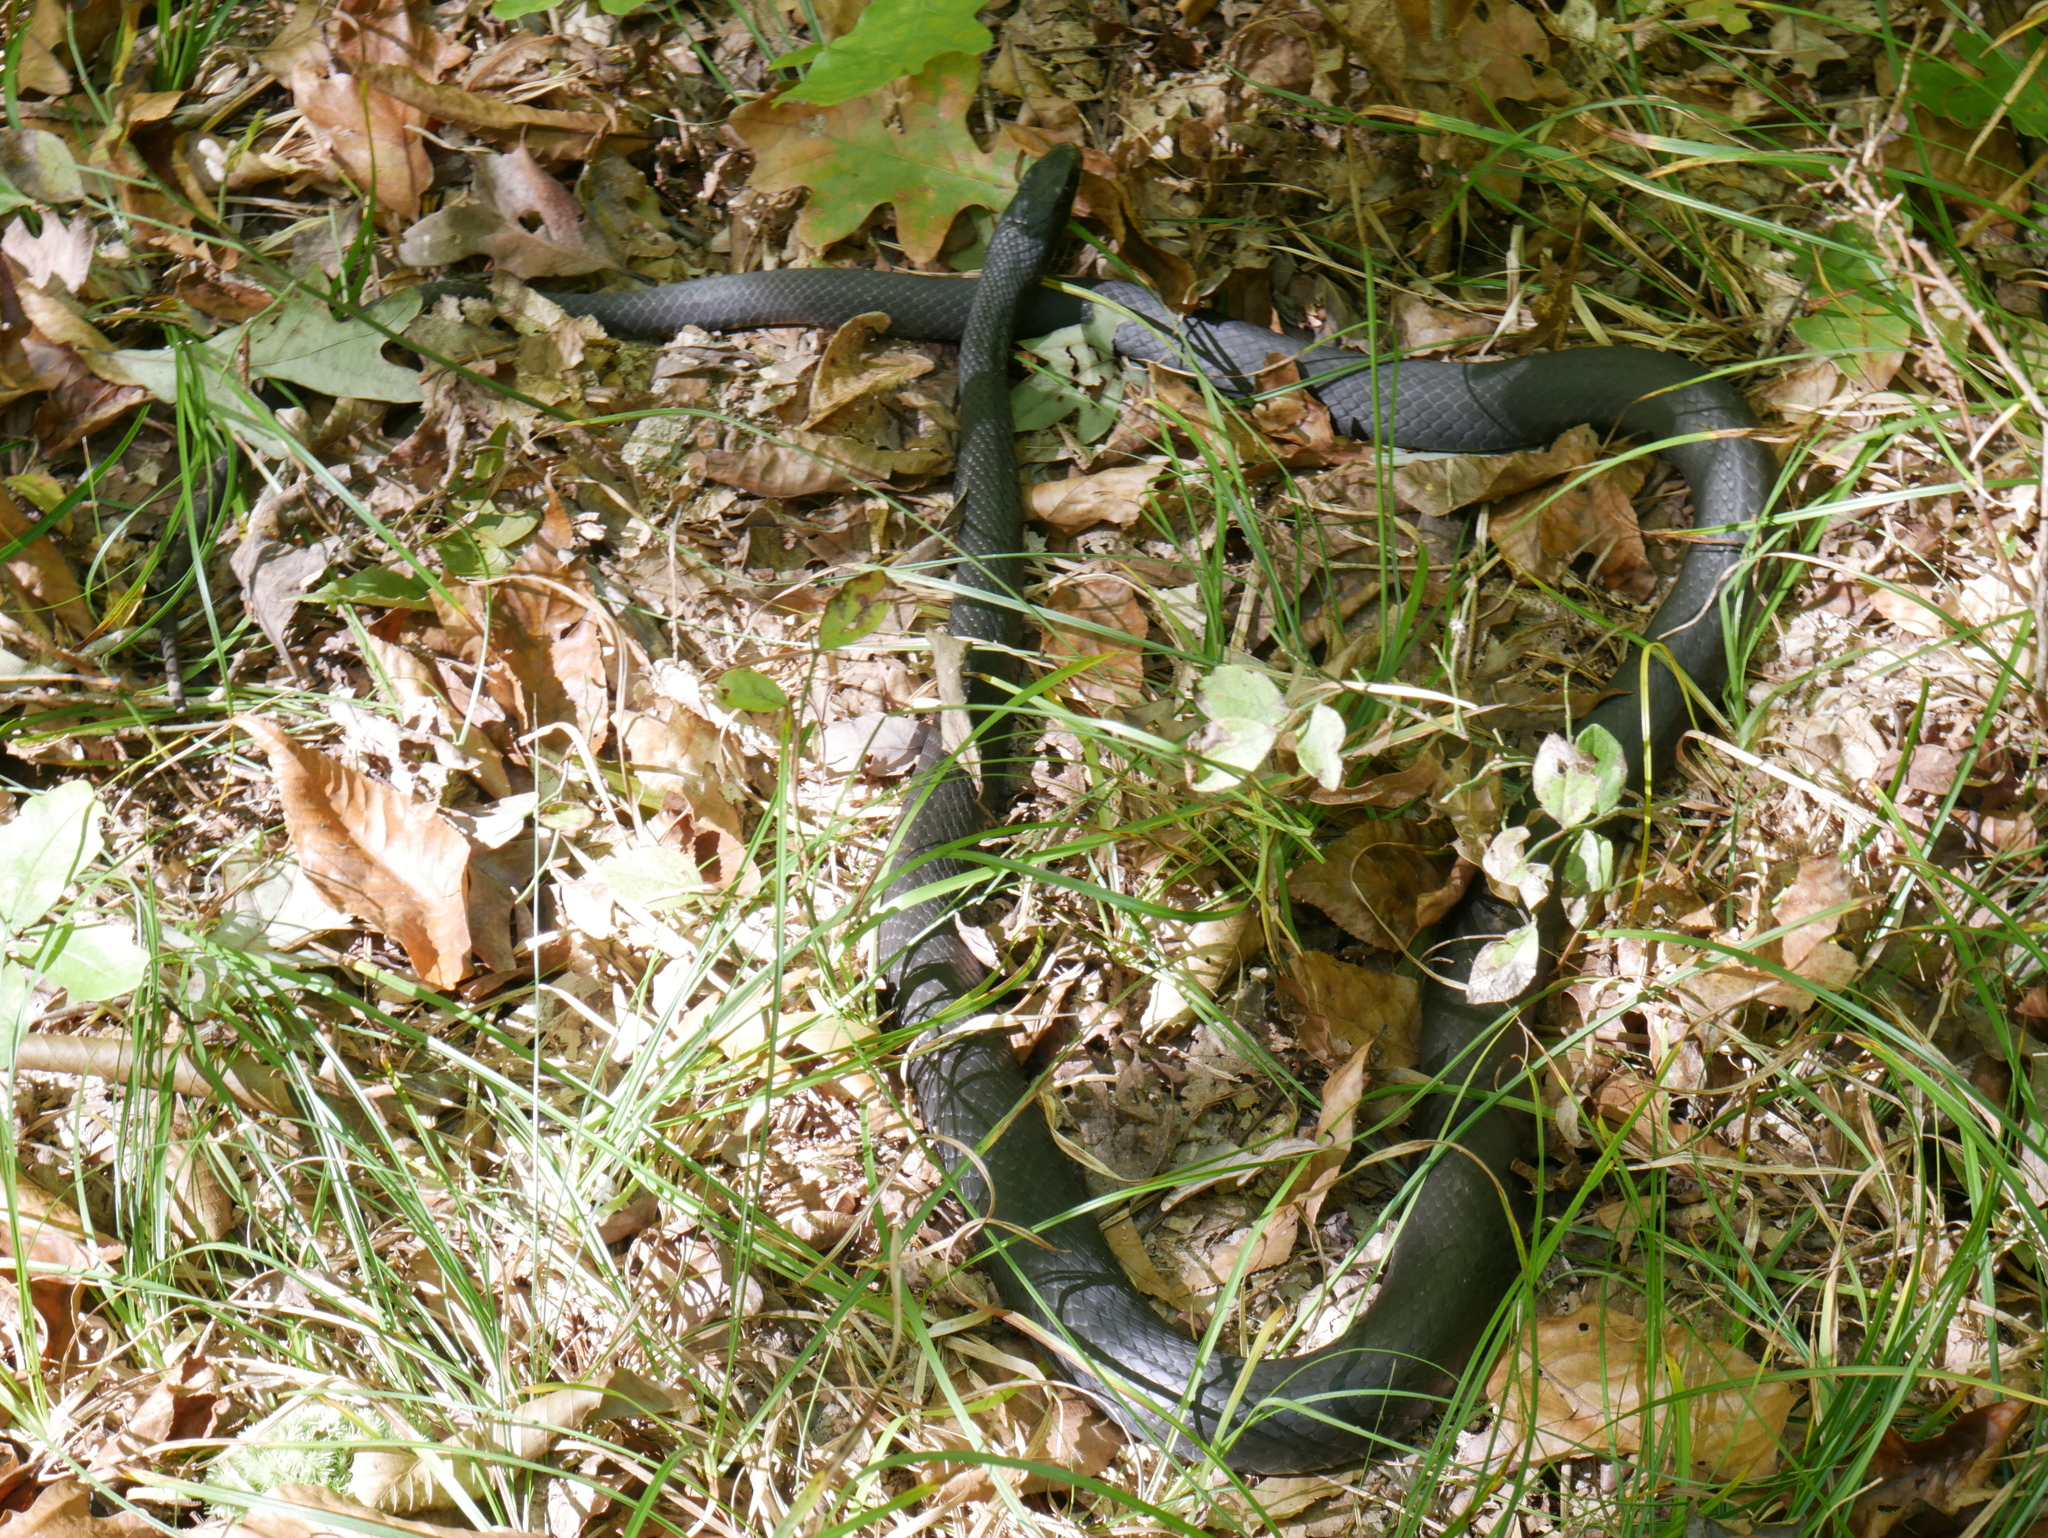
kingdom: Animalia
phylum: Chordata
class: Squamata
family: Colubridae
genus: Coluber
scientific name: Coluber constrictor
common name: Eastern racer
